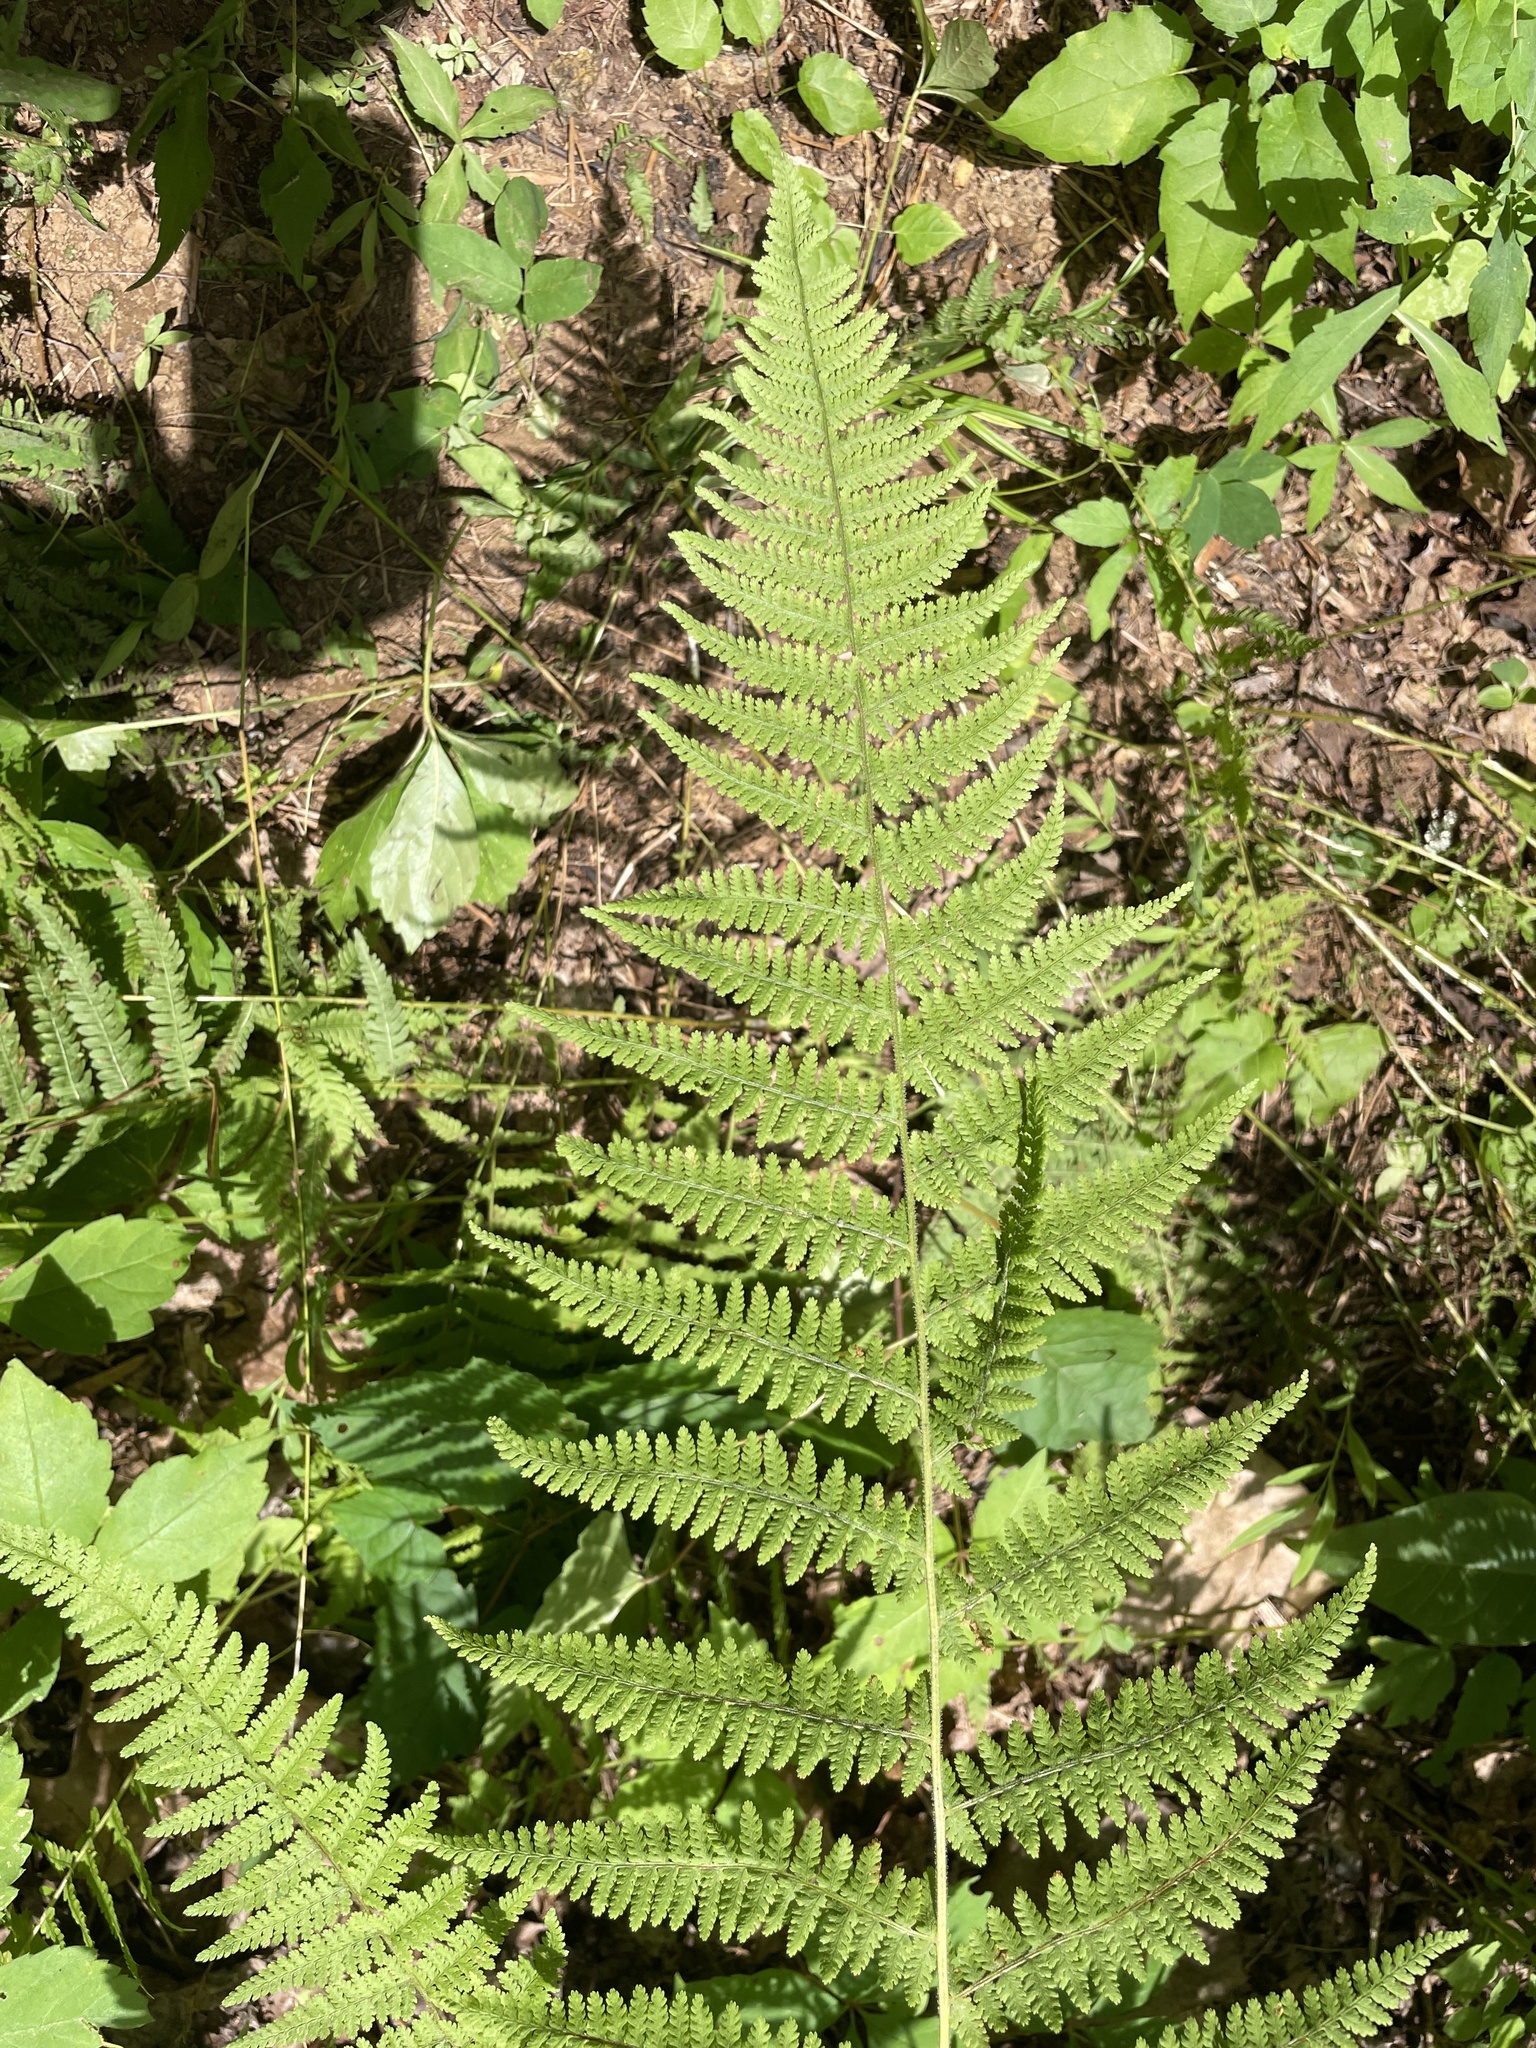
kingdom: Plantae
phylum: Tracheophyta
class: Polypodiopsida
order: Polypodiales
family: Dennstaedtiaceae
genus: Sitobolium
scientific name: Sitobolium punctilobum
